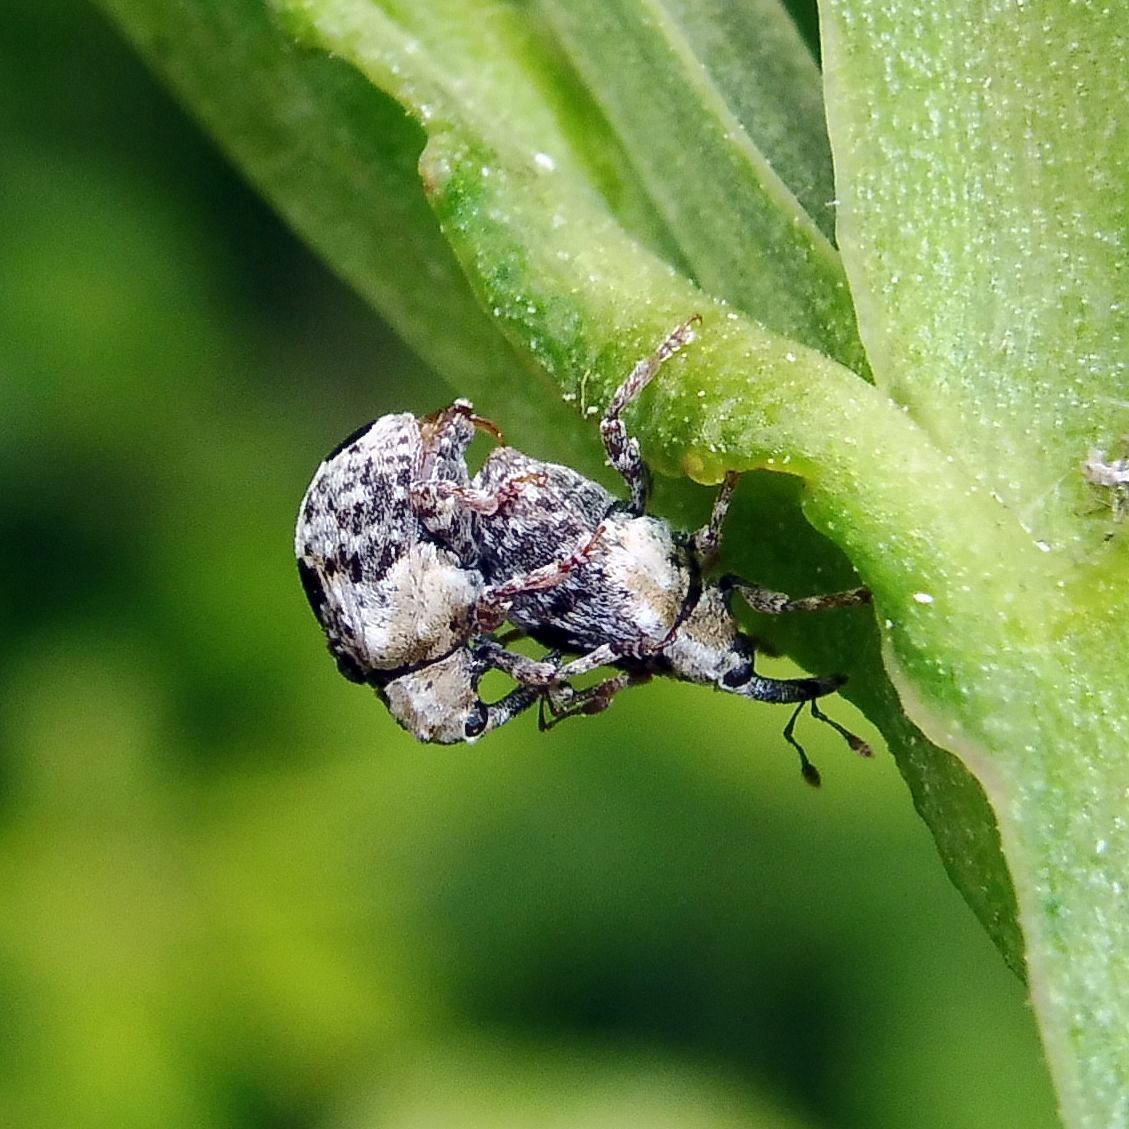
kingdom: Animalia
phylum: Arthropoda
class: Insecta
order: Coleoptera
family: Curculionidae
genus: Cionus
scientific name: Cionus alauda
